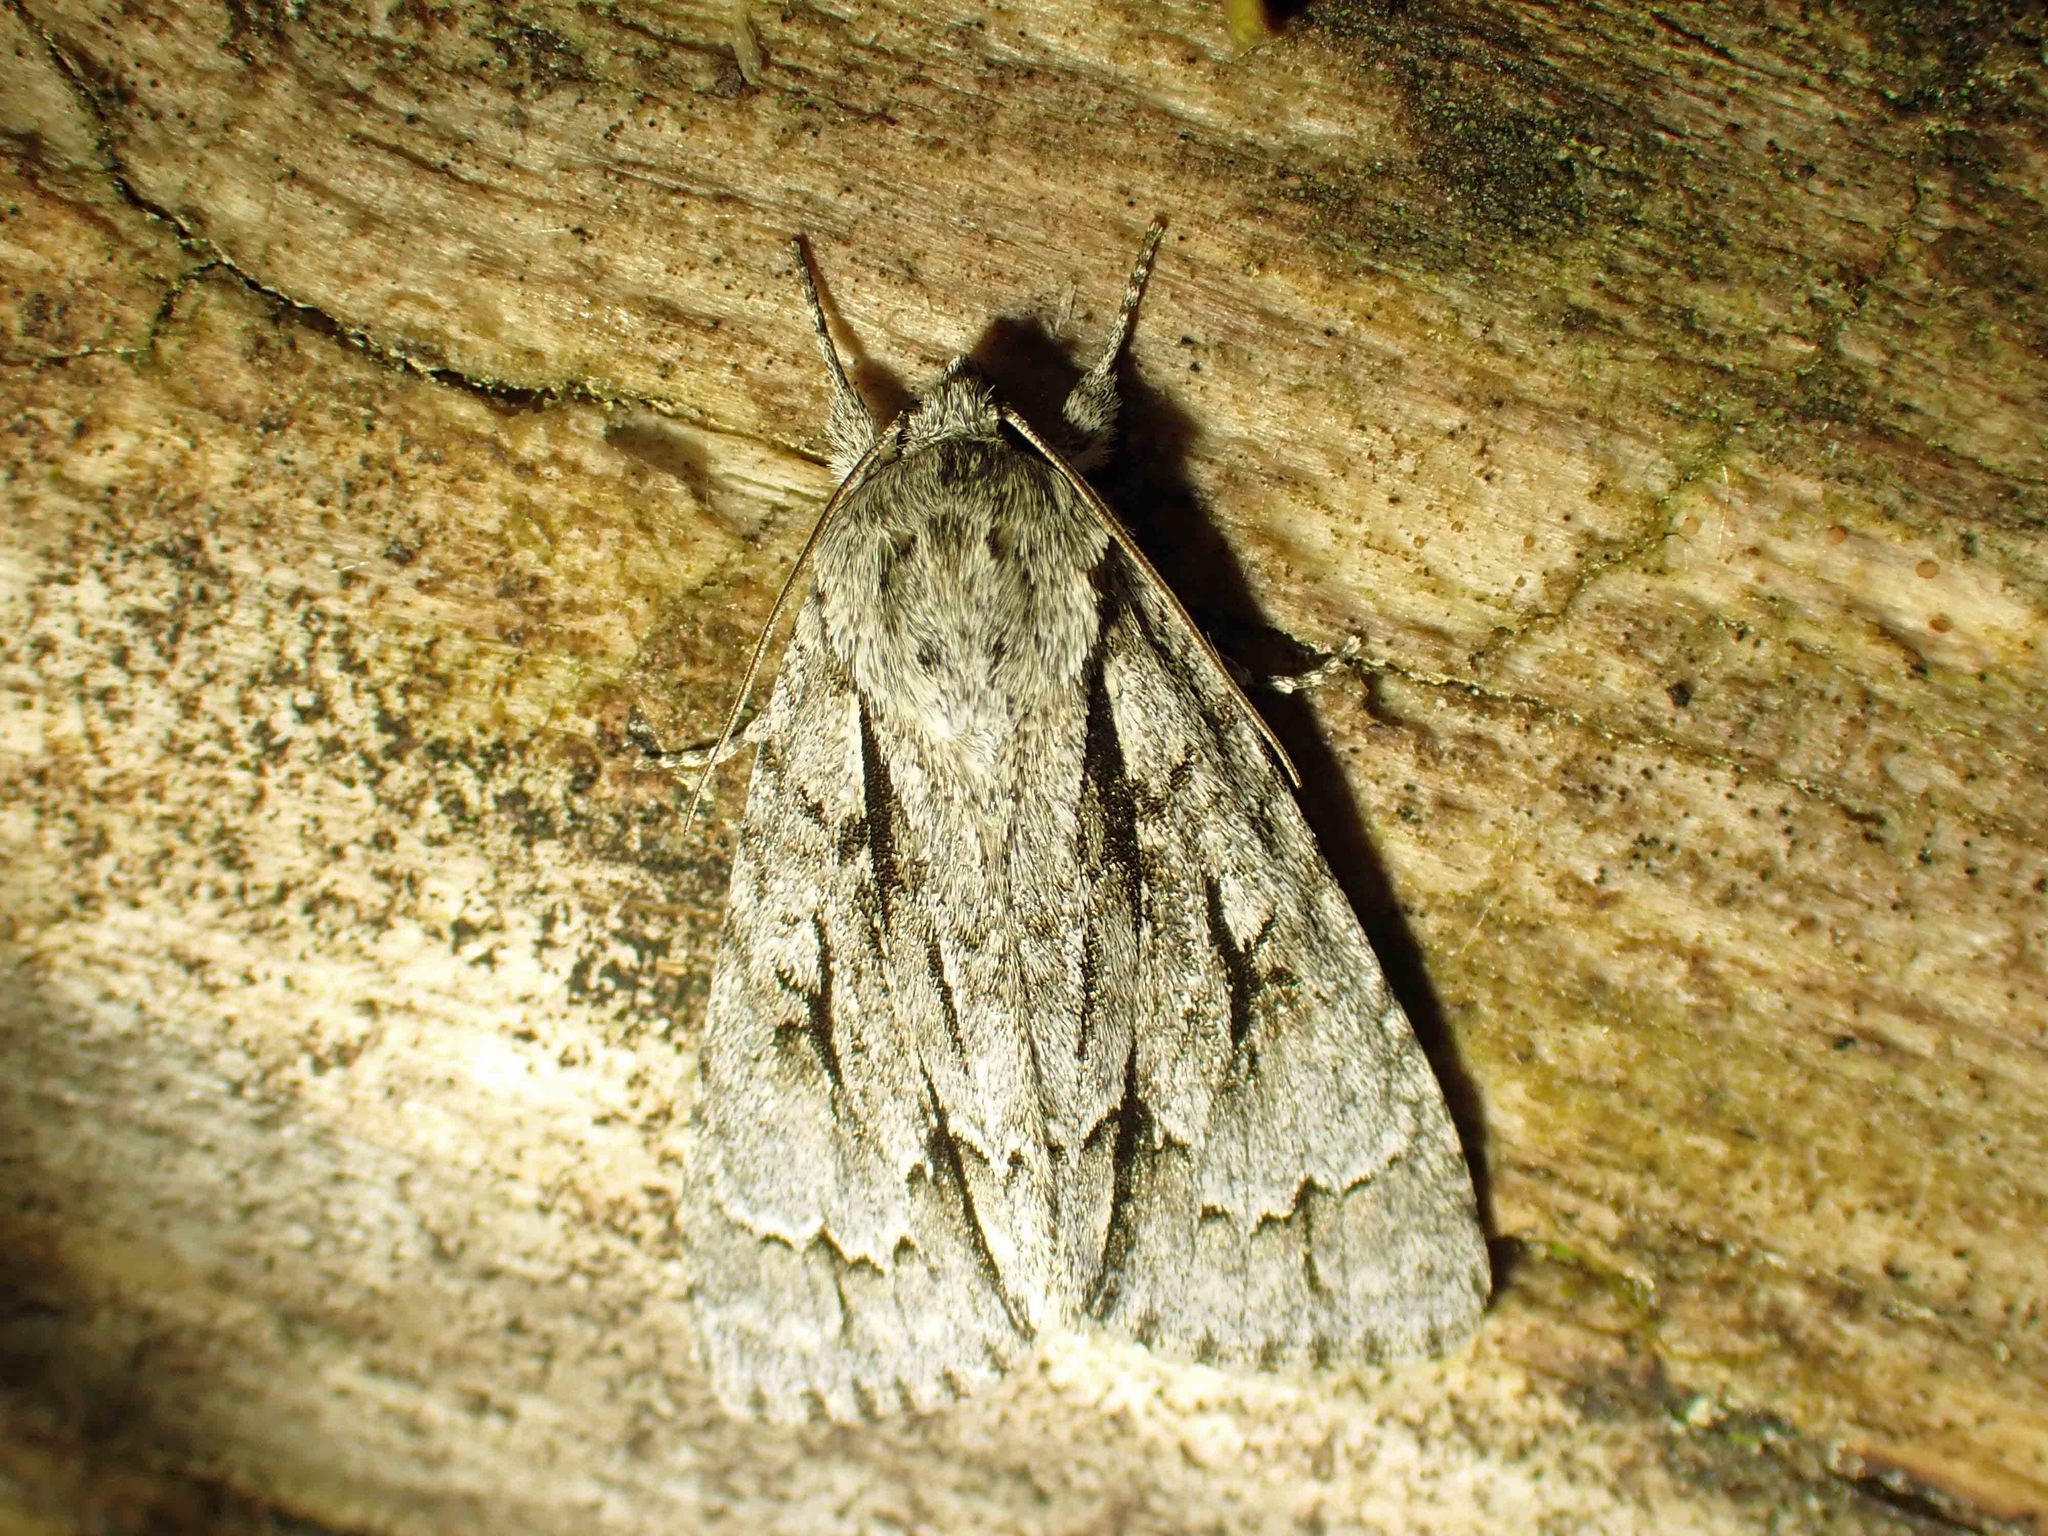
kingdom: Animalia
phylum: Arthropoda
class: Insecta
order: Lepidoptera
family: Noctuidae
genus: Acronicta
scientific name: Acronicta hasta
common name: Cherry dagger
